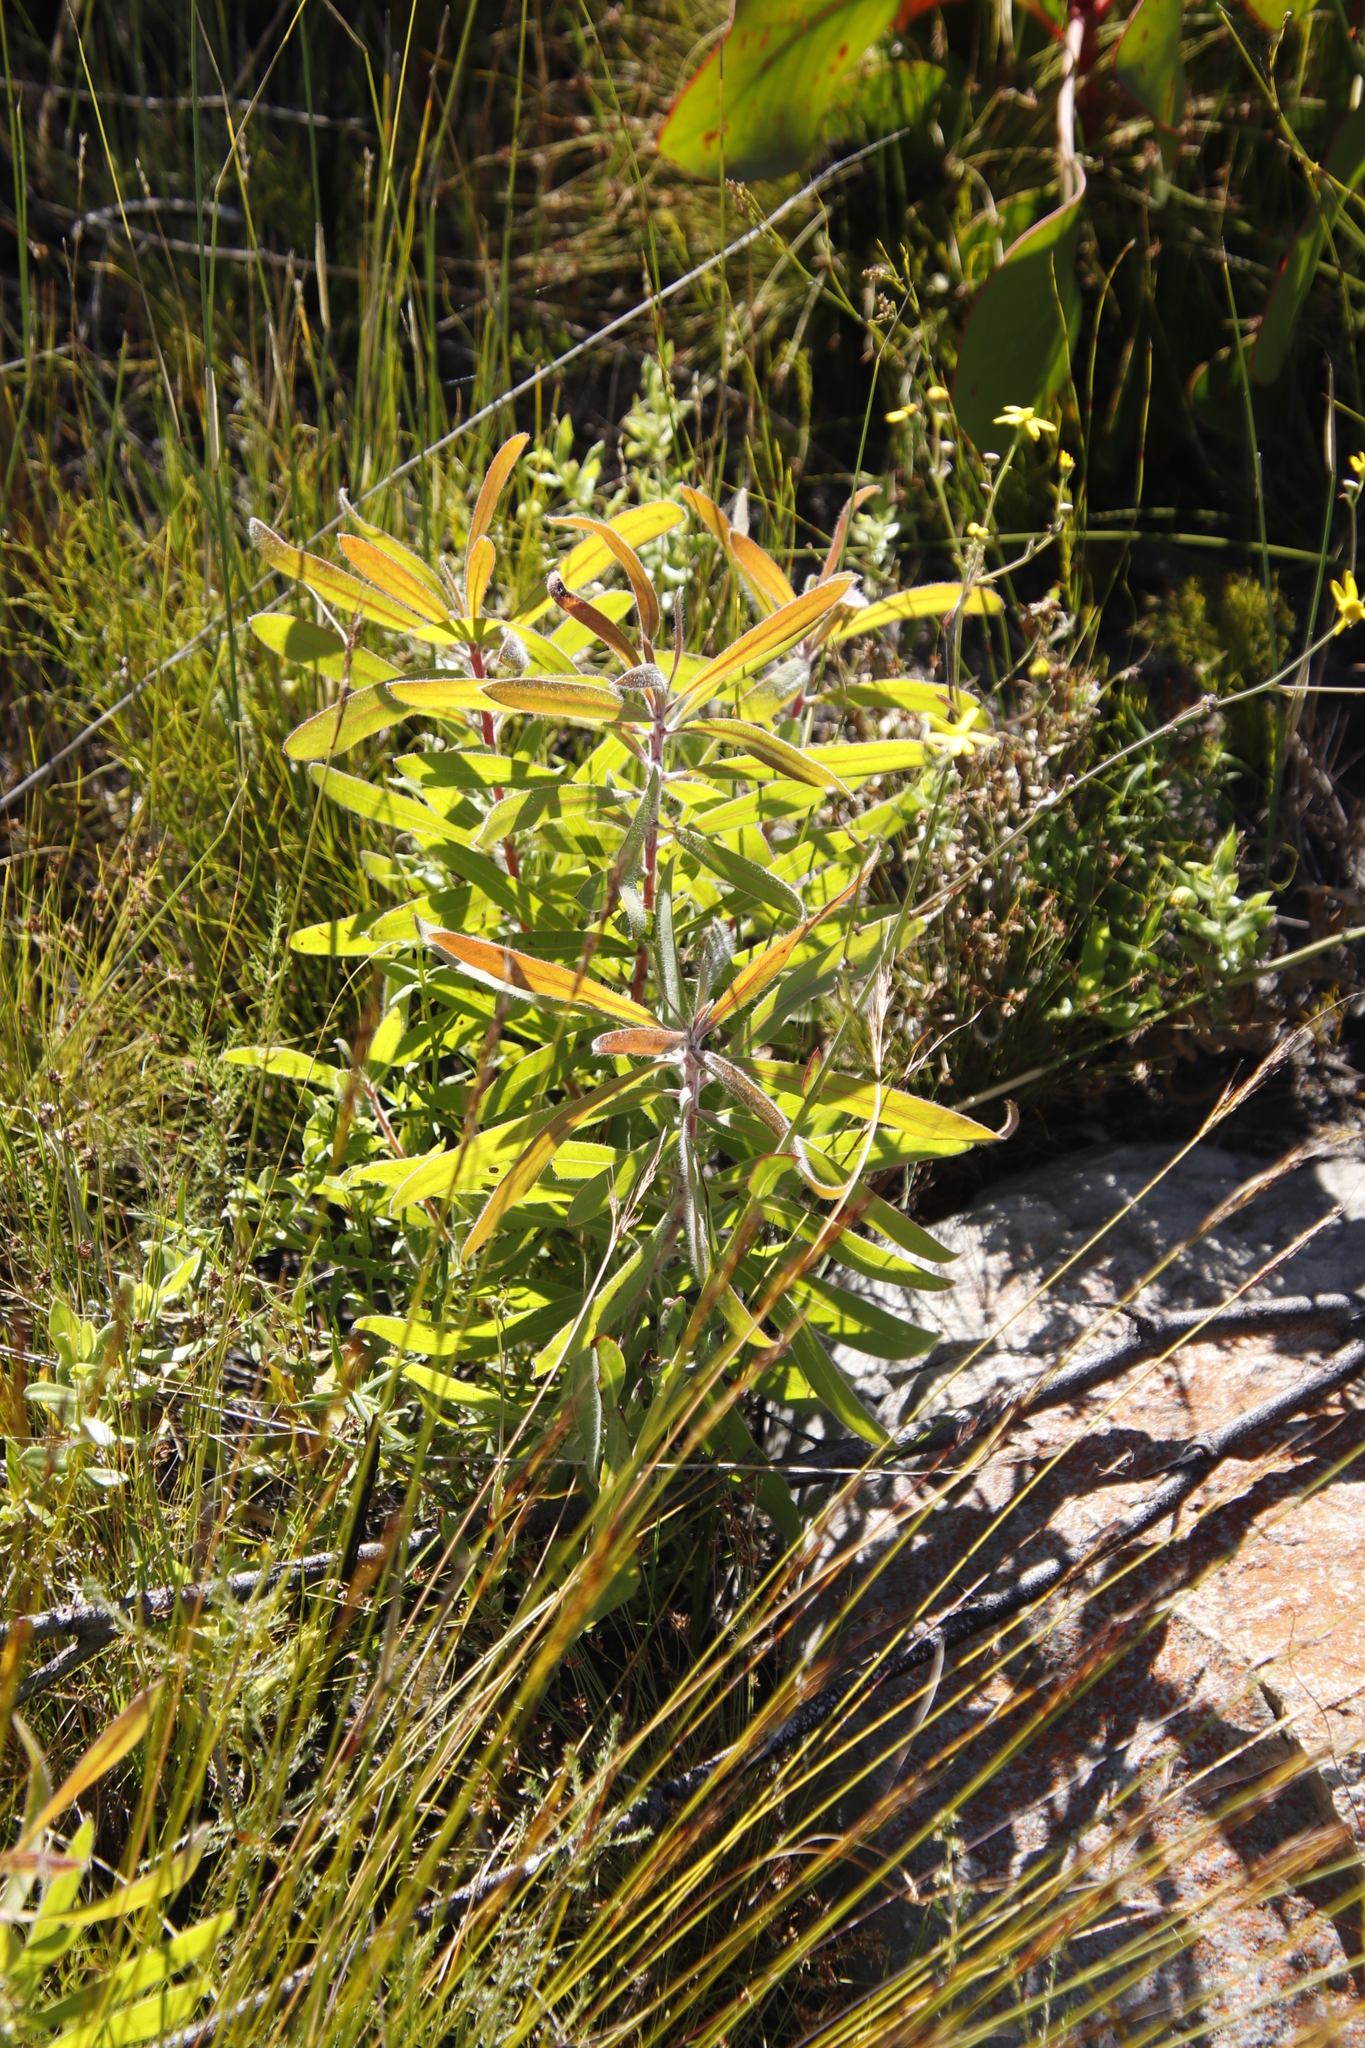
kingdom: Plantae
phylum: Tracheophyta
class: Magnoliopsida
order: Proteales
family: Proteaceae
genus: Protea
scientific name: Protea neriifolia
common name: Blue sugarbush
